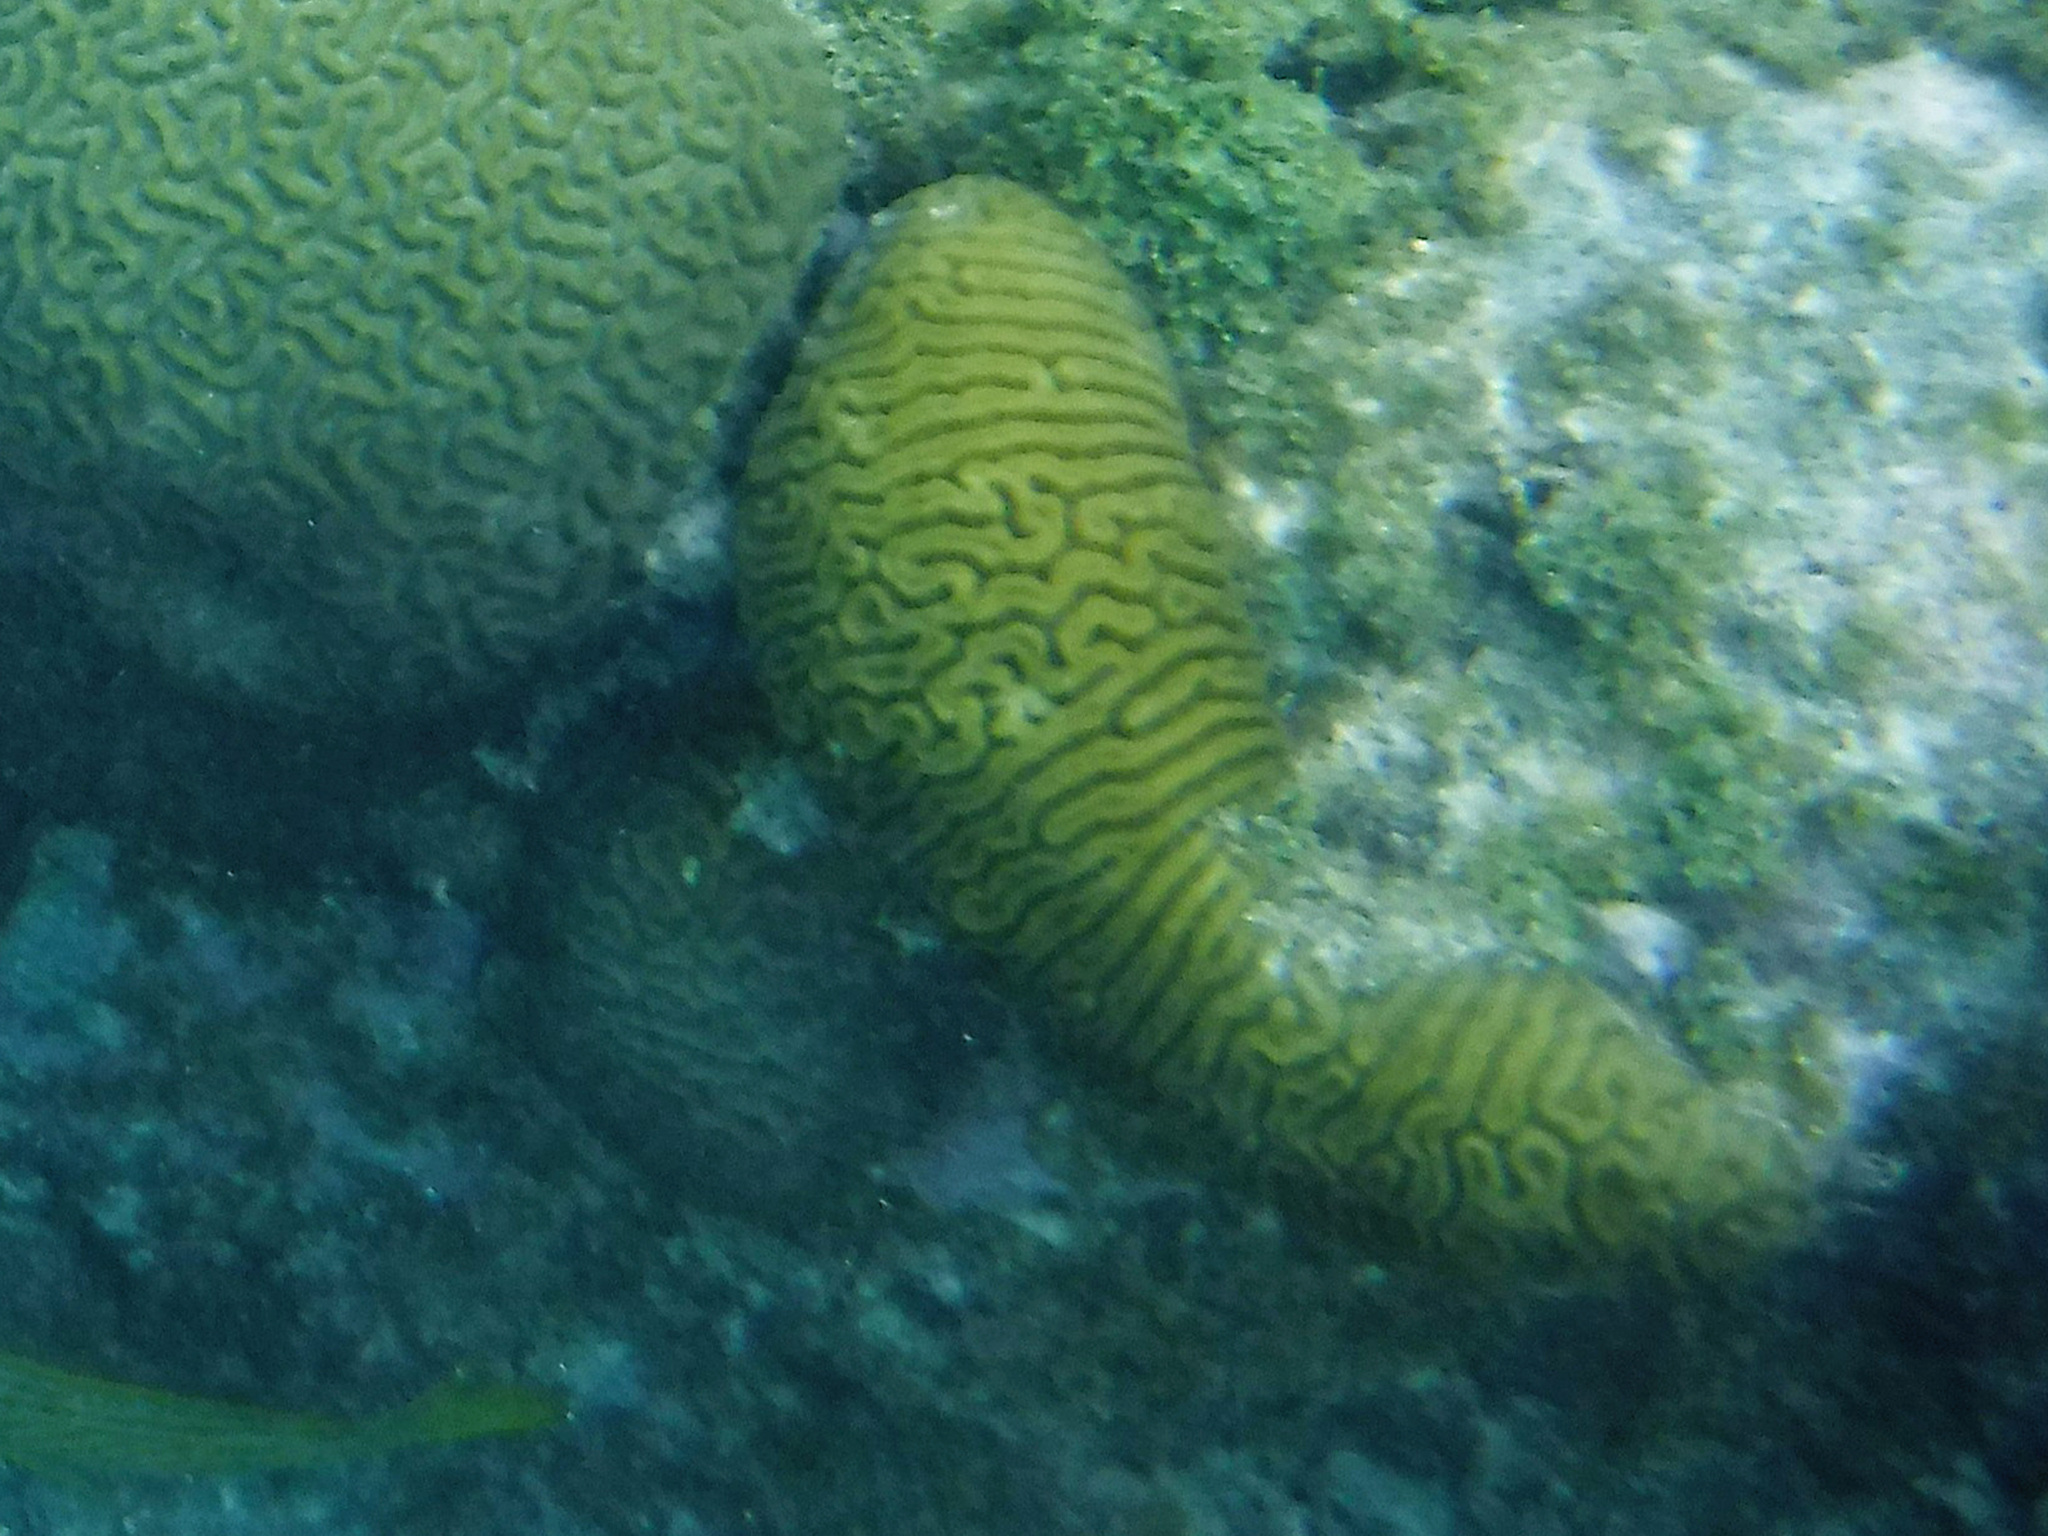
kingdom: Animalia
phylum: Cnidaria
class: Anthozoa
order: Scleractinia
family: Faviidae
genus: Diploria
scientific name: Diploria labyrinthiformis
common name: Grooved brain coral
